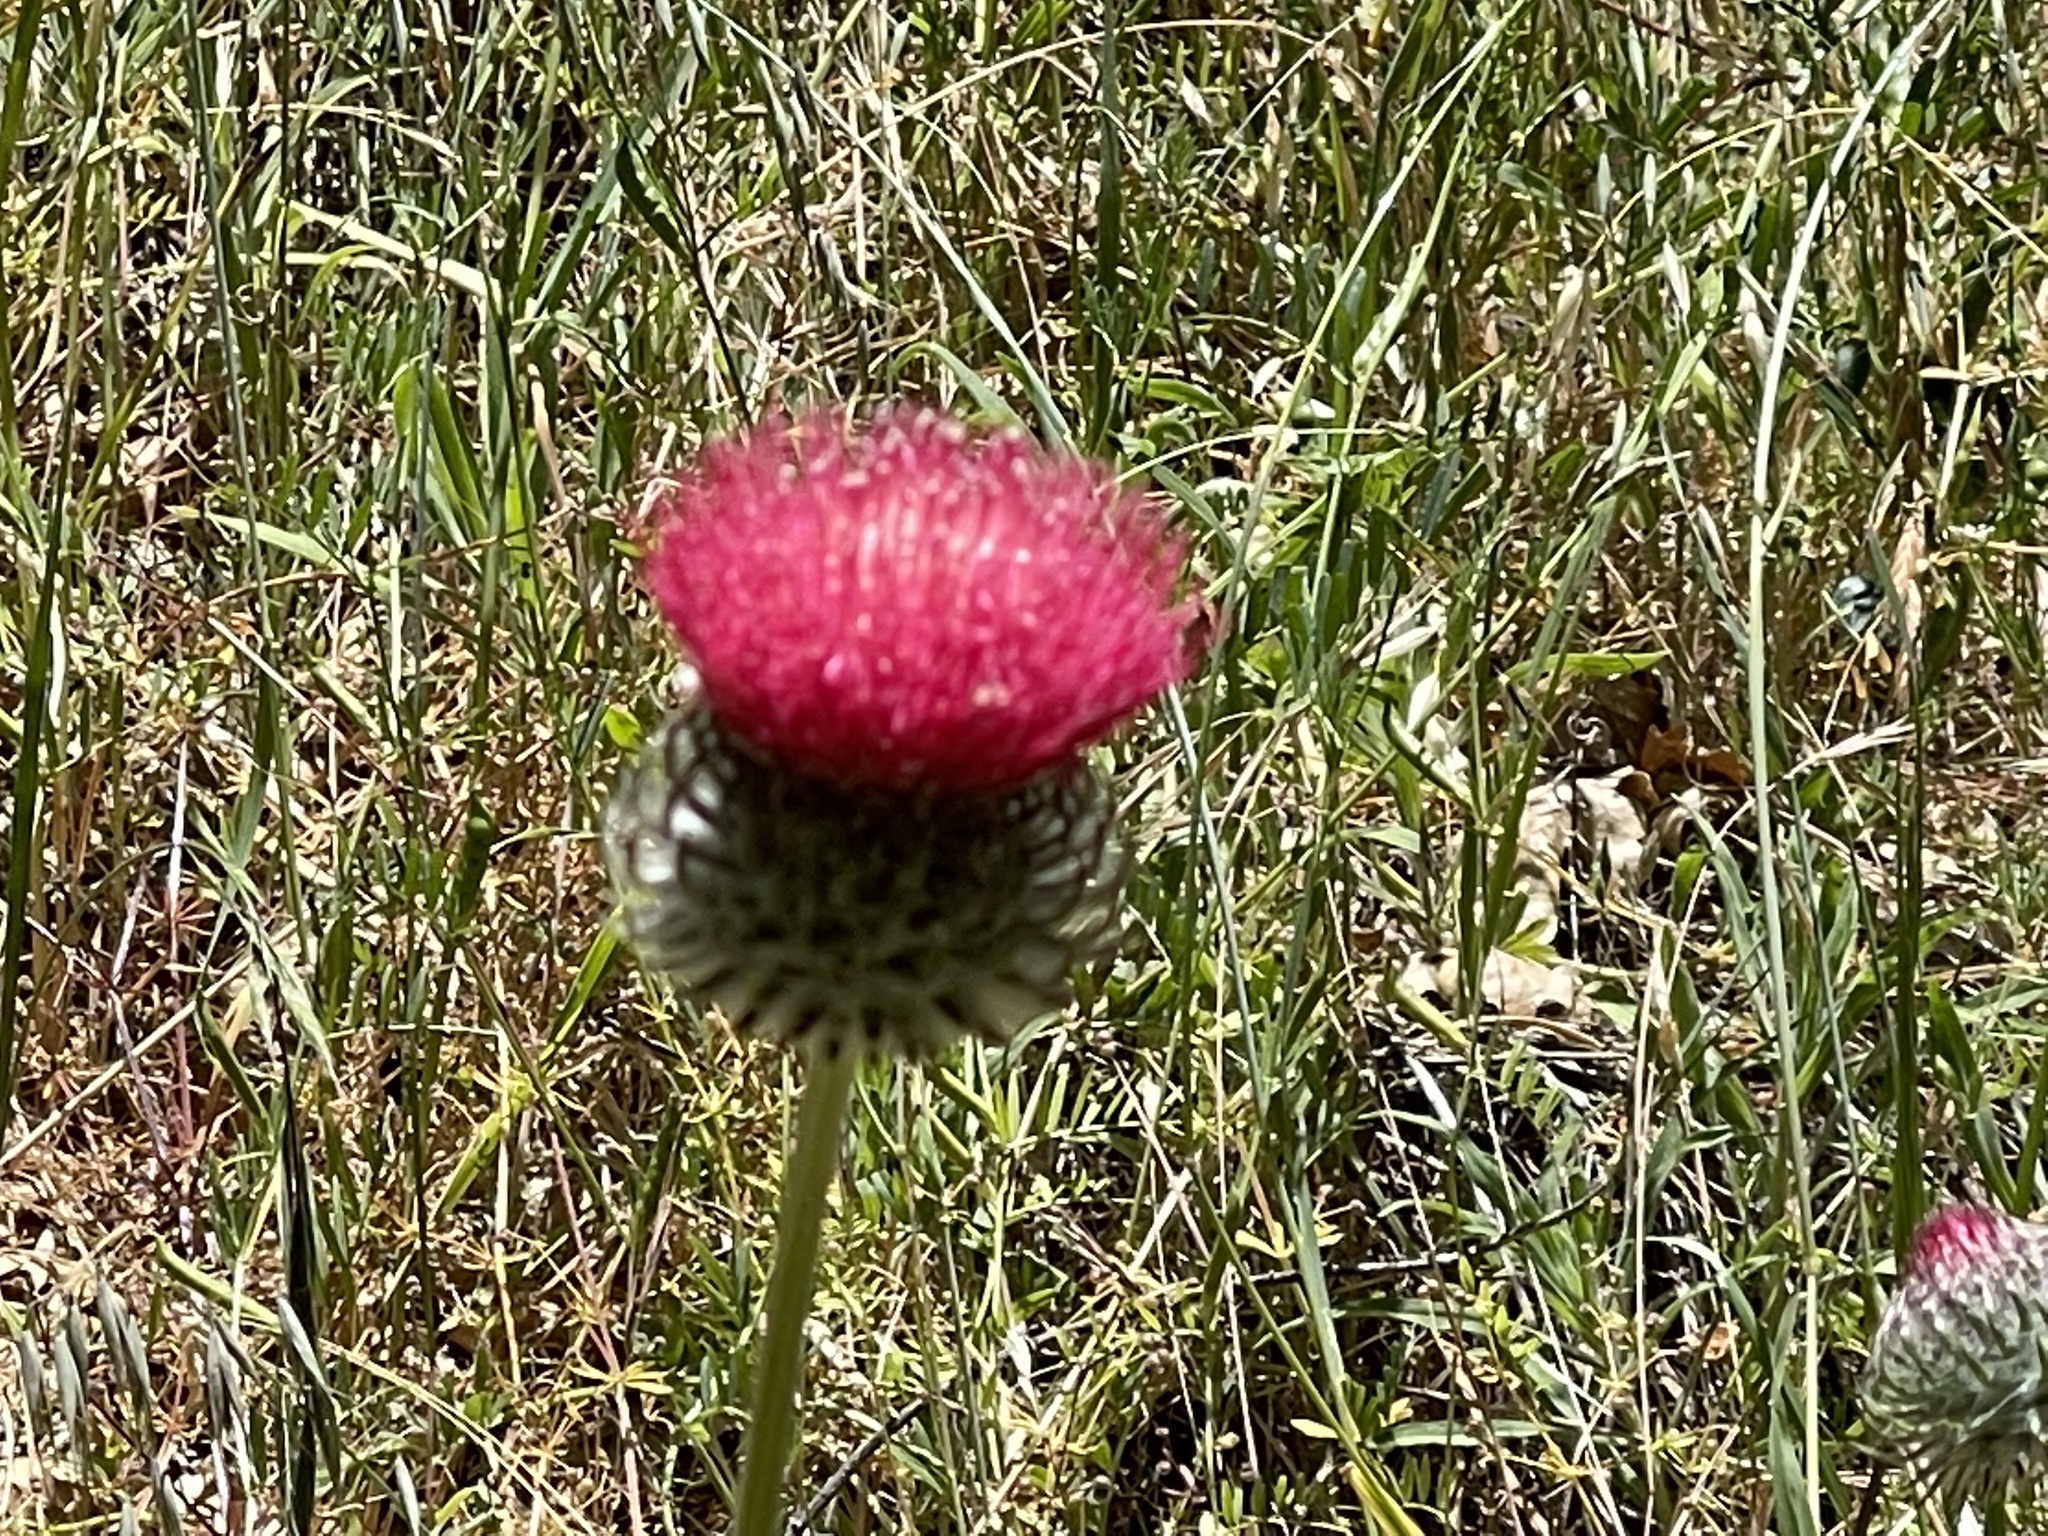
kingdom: Plantae
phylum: Tracheophyta
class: Magnoliopsida
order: Asterales
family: Asteraceae
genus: Cirsium
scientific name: Cirsium occidentale
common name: Western thistle
